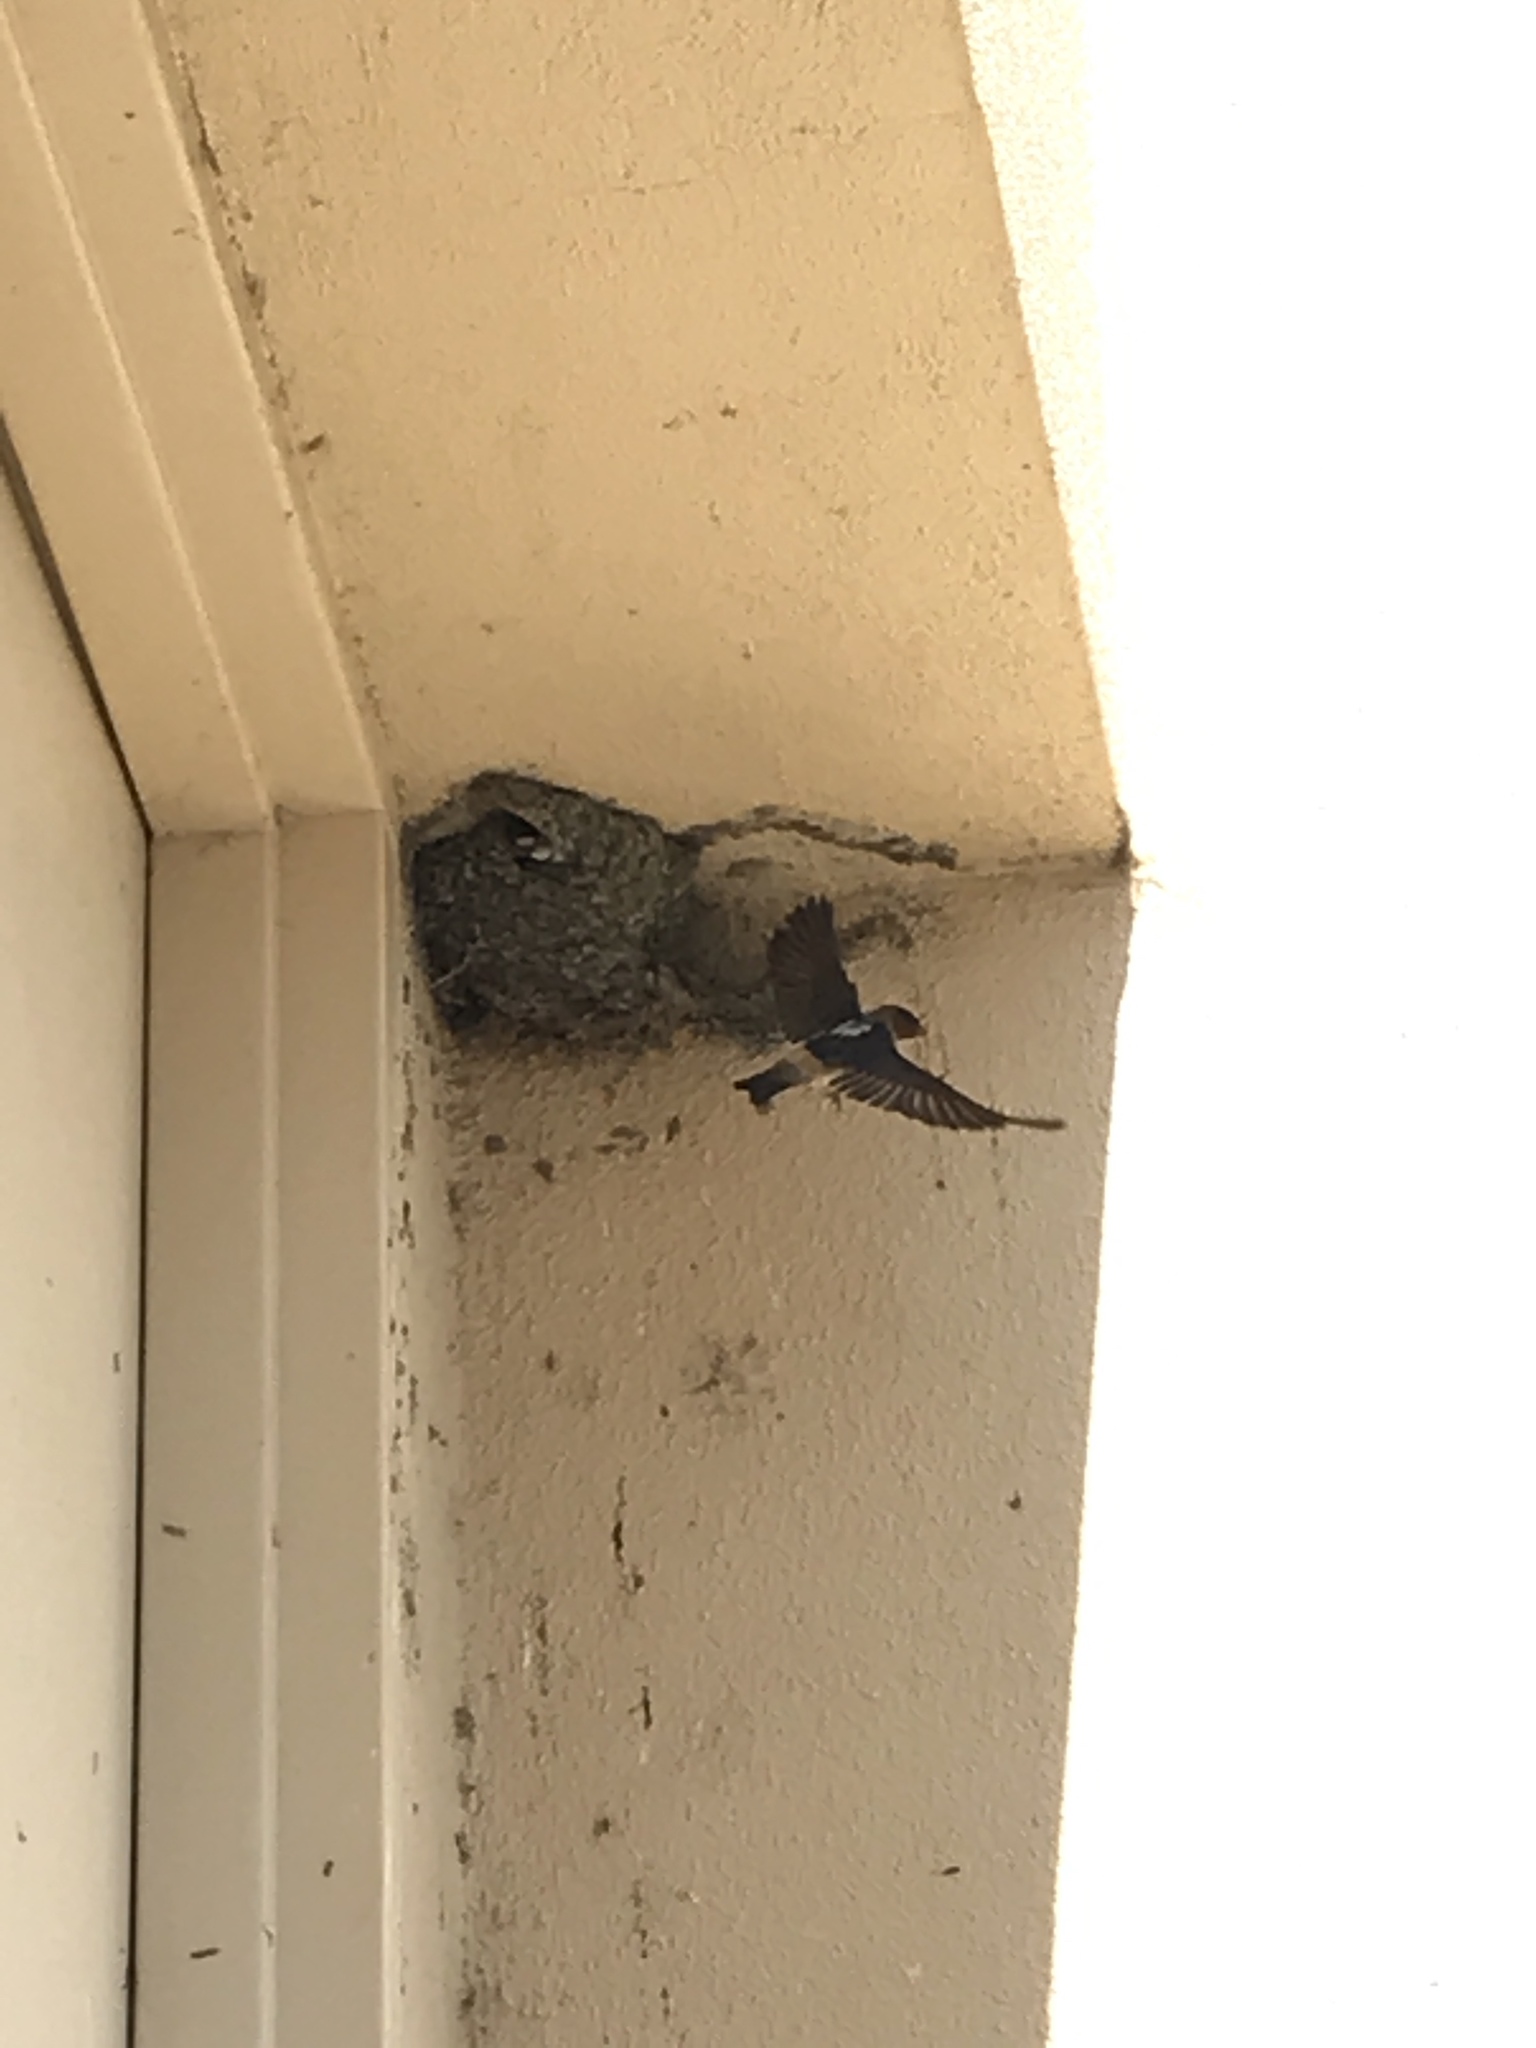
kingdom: Animalia
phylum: Chordata
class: Aves
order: Passeriformes
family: Hirundinidae
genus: Petrochelidon
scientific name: Petrochelidon pyrrhonota
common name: American cliff swallow
